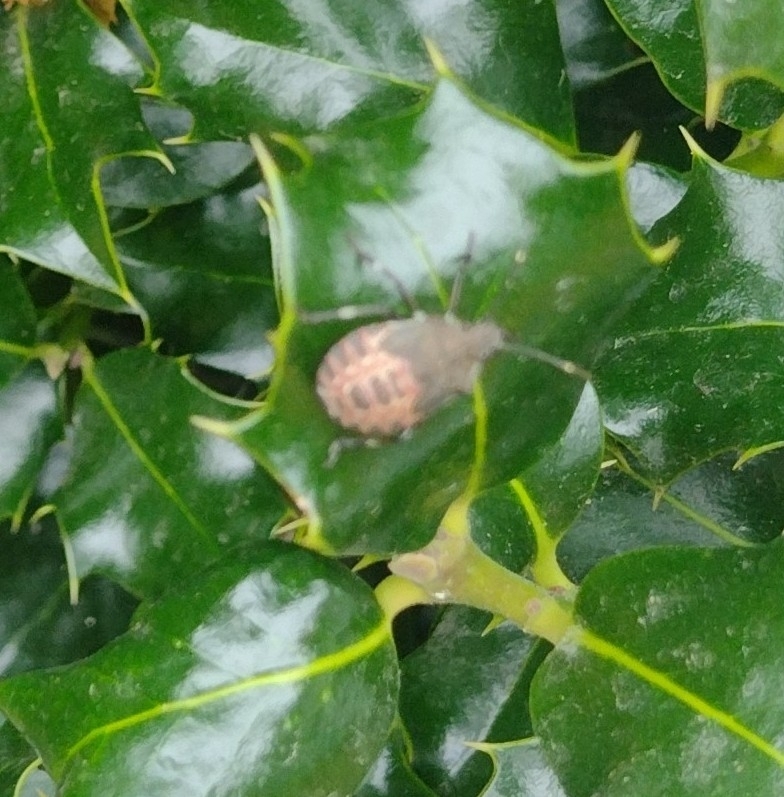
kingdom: Animalia
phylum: Arthropoda
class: Insecta
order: Hemiptera
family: Pentatomidae
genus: Halyomorpha
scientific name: Halyomorpha halys
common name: Brown marmorated stink bug
